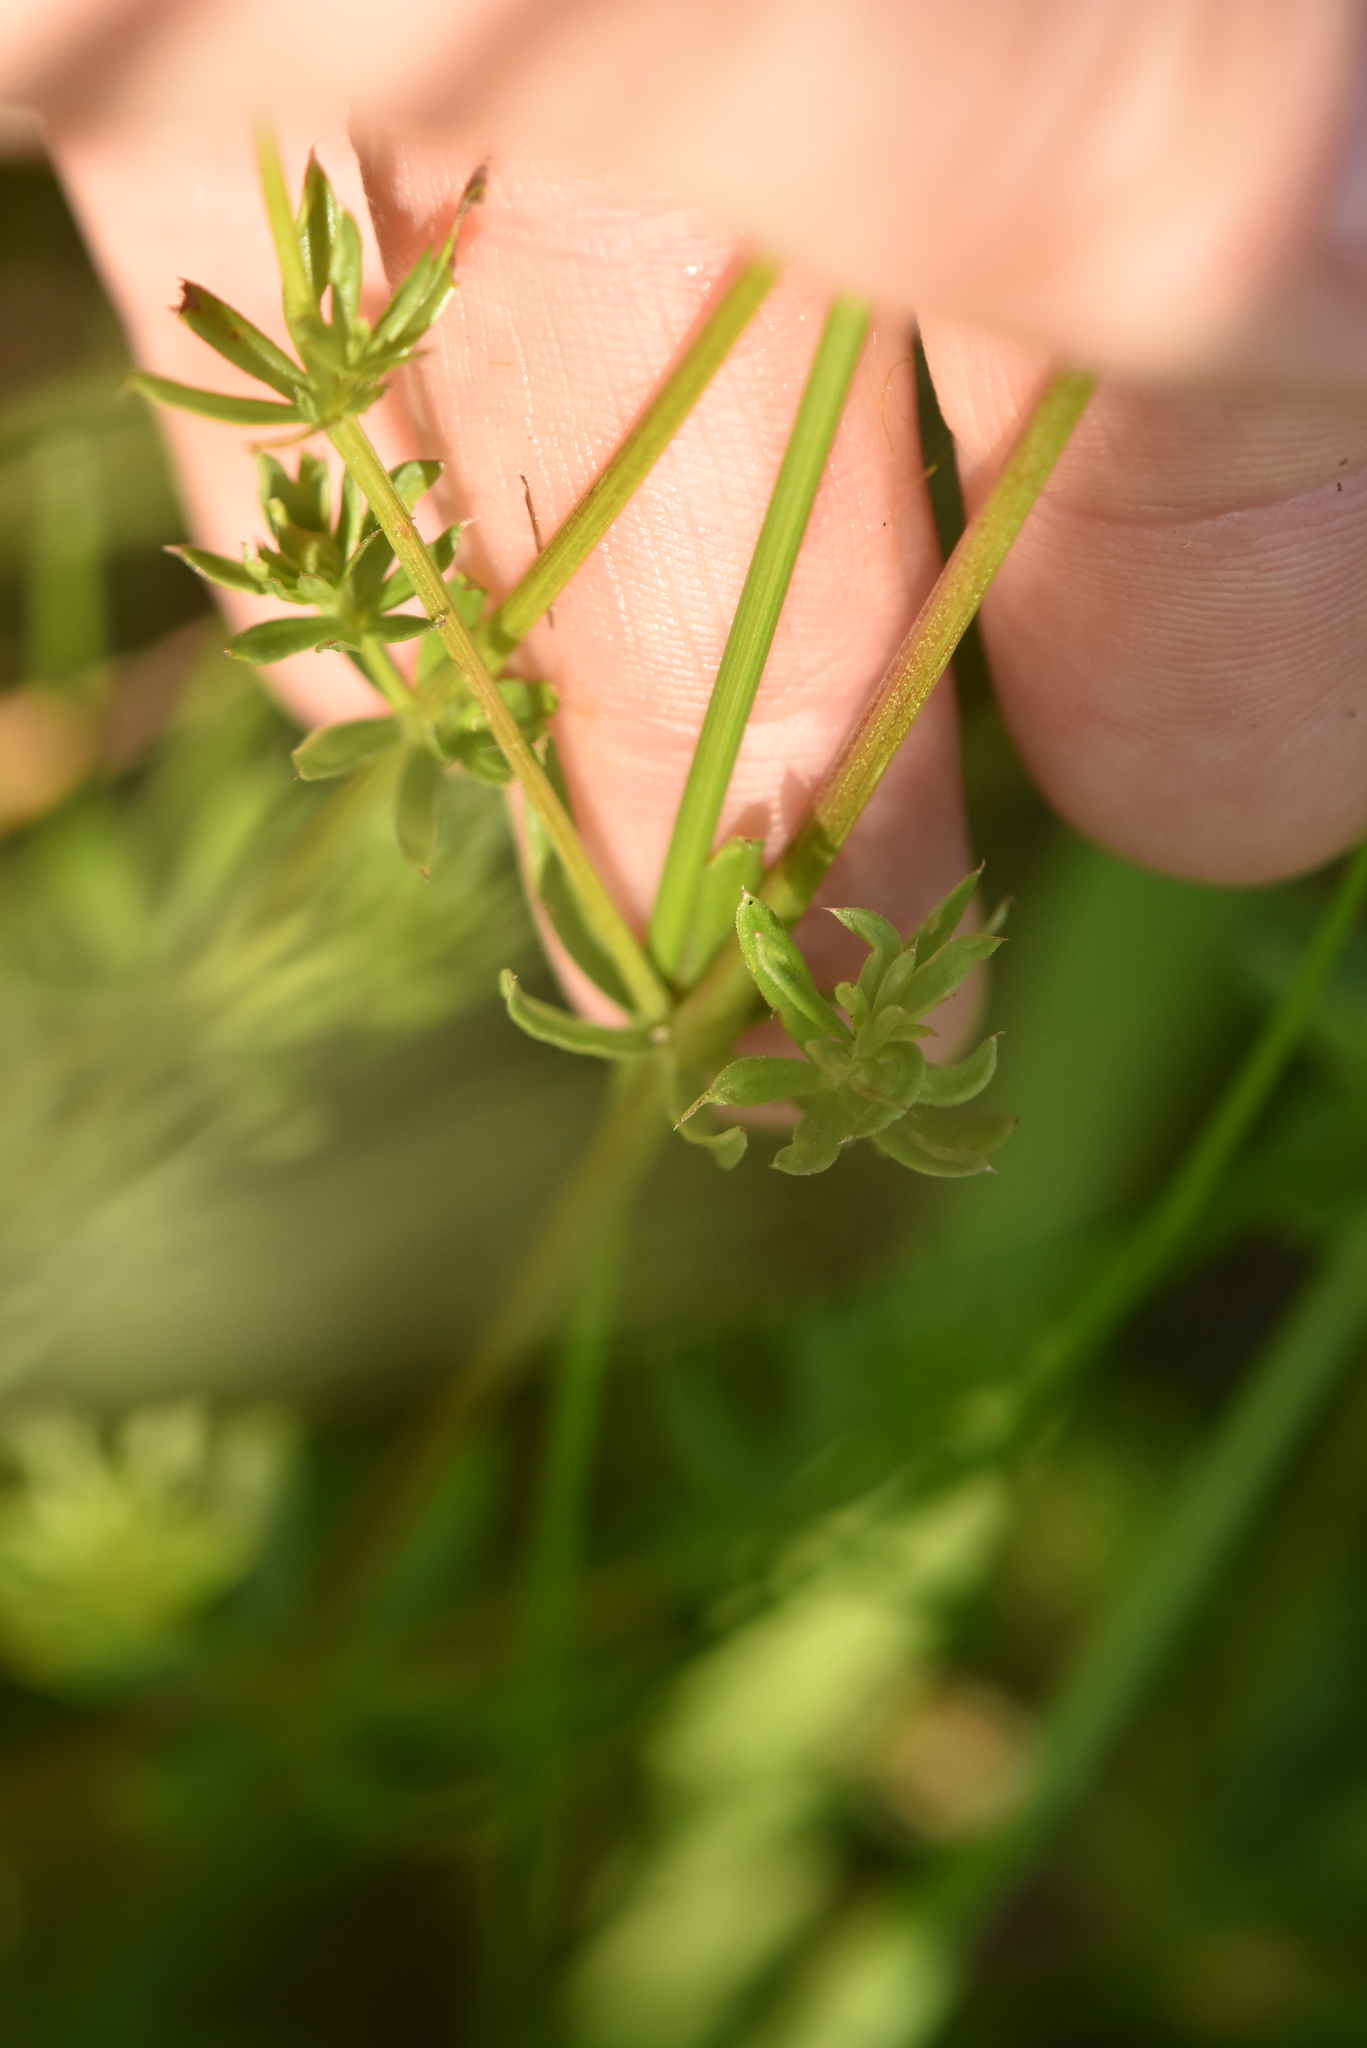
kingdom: Plantae
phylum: Tracheophyta
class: Magnoliopsida
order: Gentianales
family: Rubiaceae
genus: Galium
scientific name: Galium mollugo
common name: Hedge bedstraw
